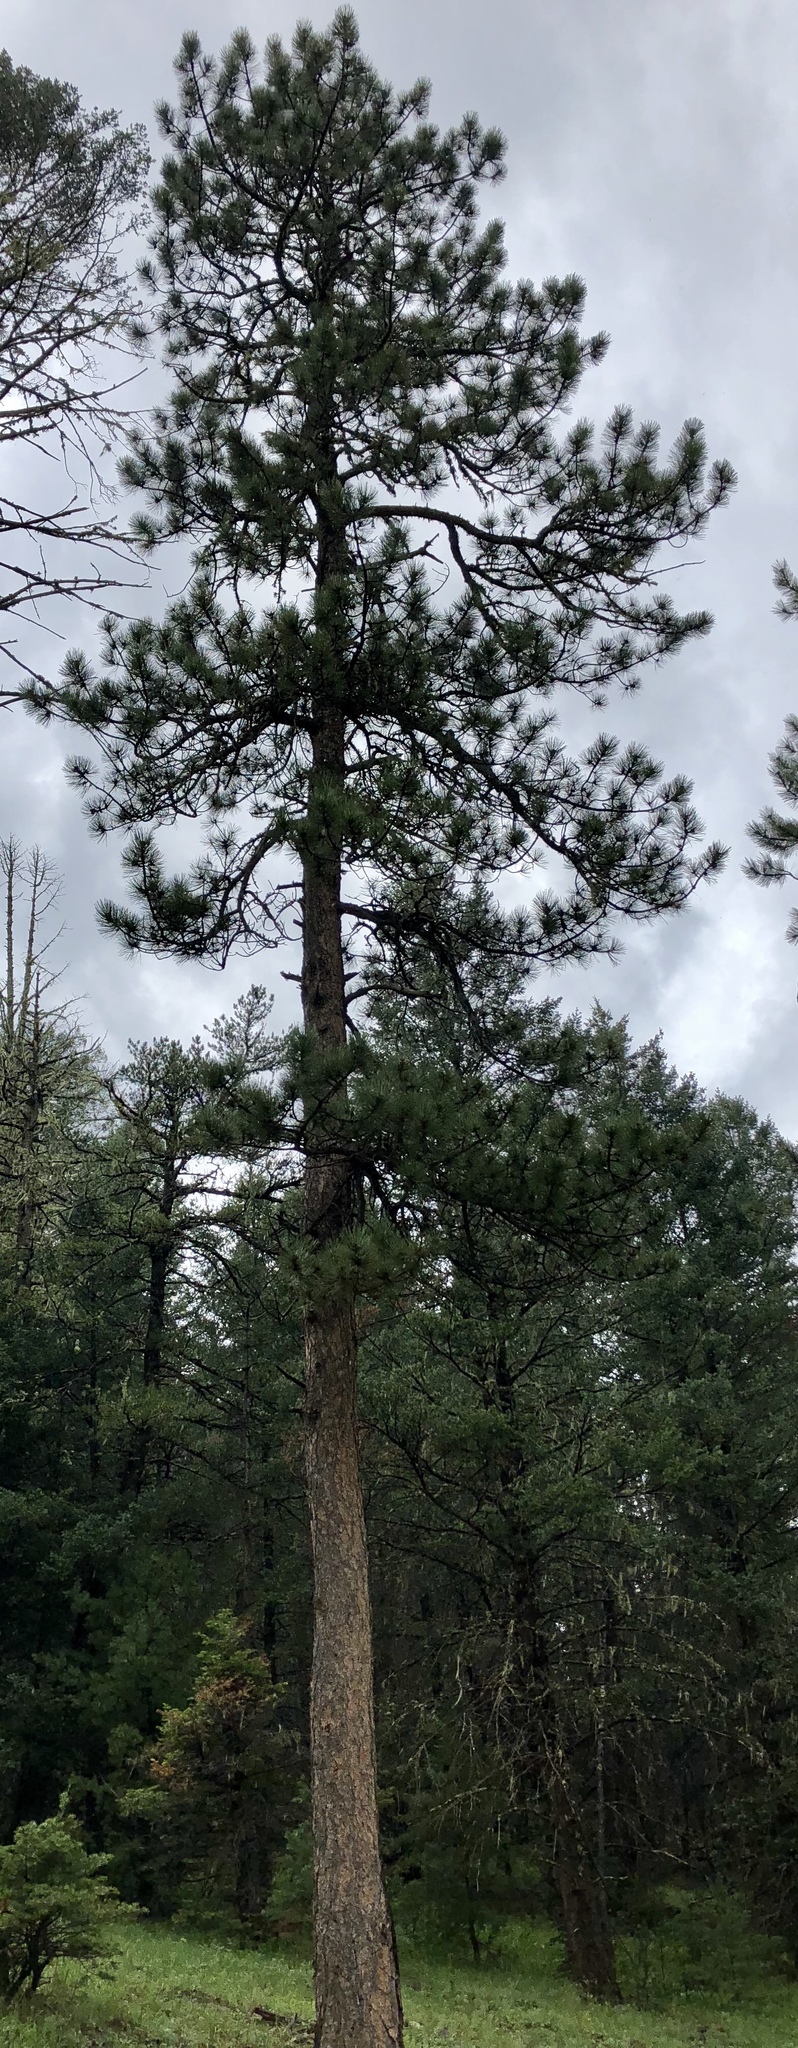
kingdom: Plantae
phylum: Tracheophyta
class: Pinopsida
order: Pinales
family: Pinaceae
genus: Pinus
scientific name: Pinus ponderosa
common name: Western yellow-pine
